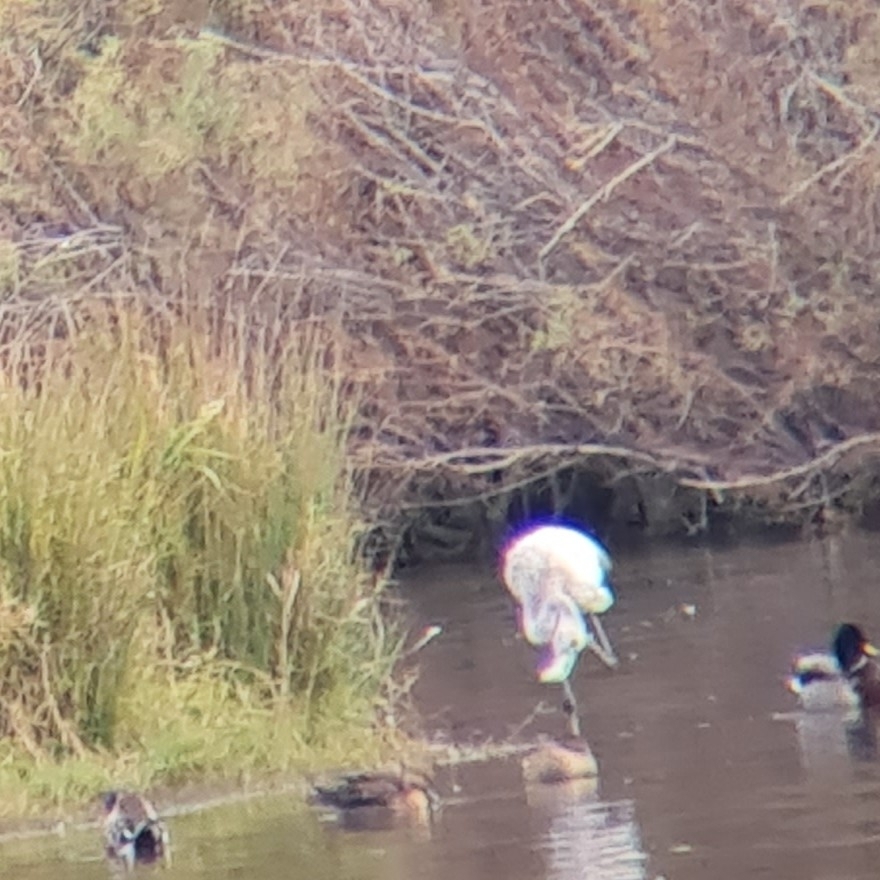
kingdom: Animalia
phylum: Chordata
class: Aves
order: Phoenicopteriformes
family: Phoenicopteridae
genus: Phoenicopterus
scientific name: Phoenicopterus roseus
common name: Greater flamingo
